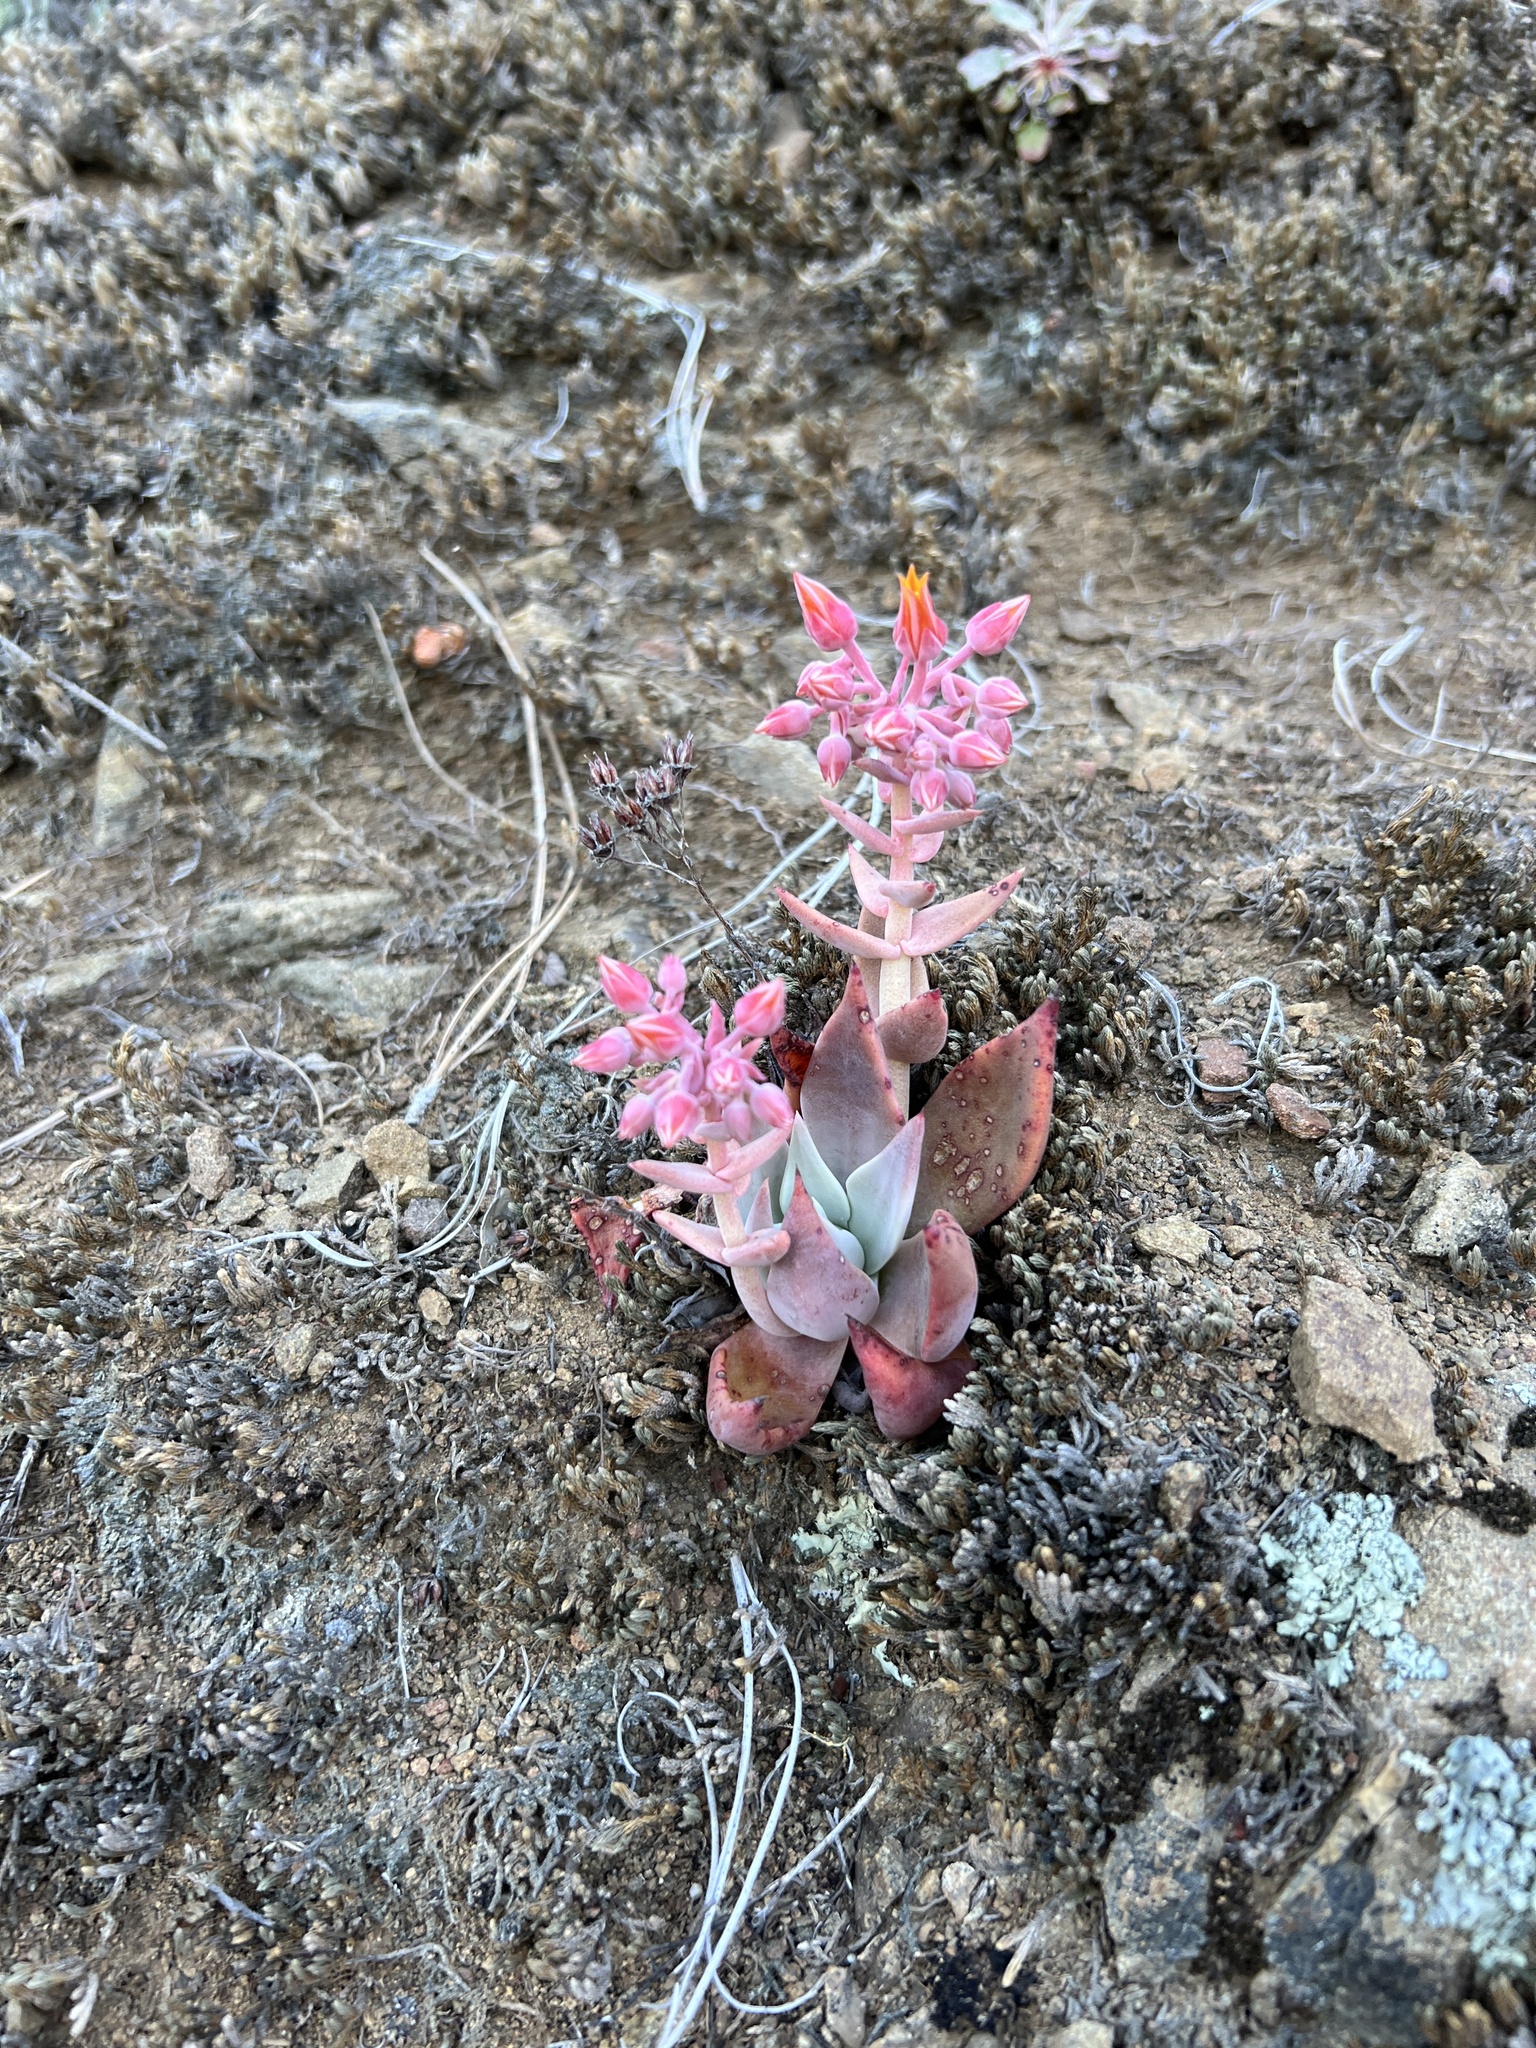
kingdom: Plantae
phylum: Tracheophyta
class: Magnoliopsida
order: Saxifragales
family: Crassulaceae
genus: Dudleya
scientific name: Dudleya cymosa
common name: Canyon dudleya
